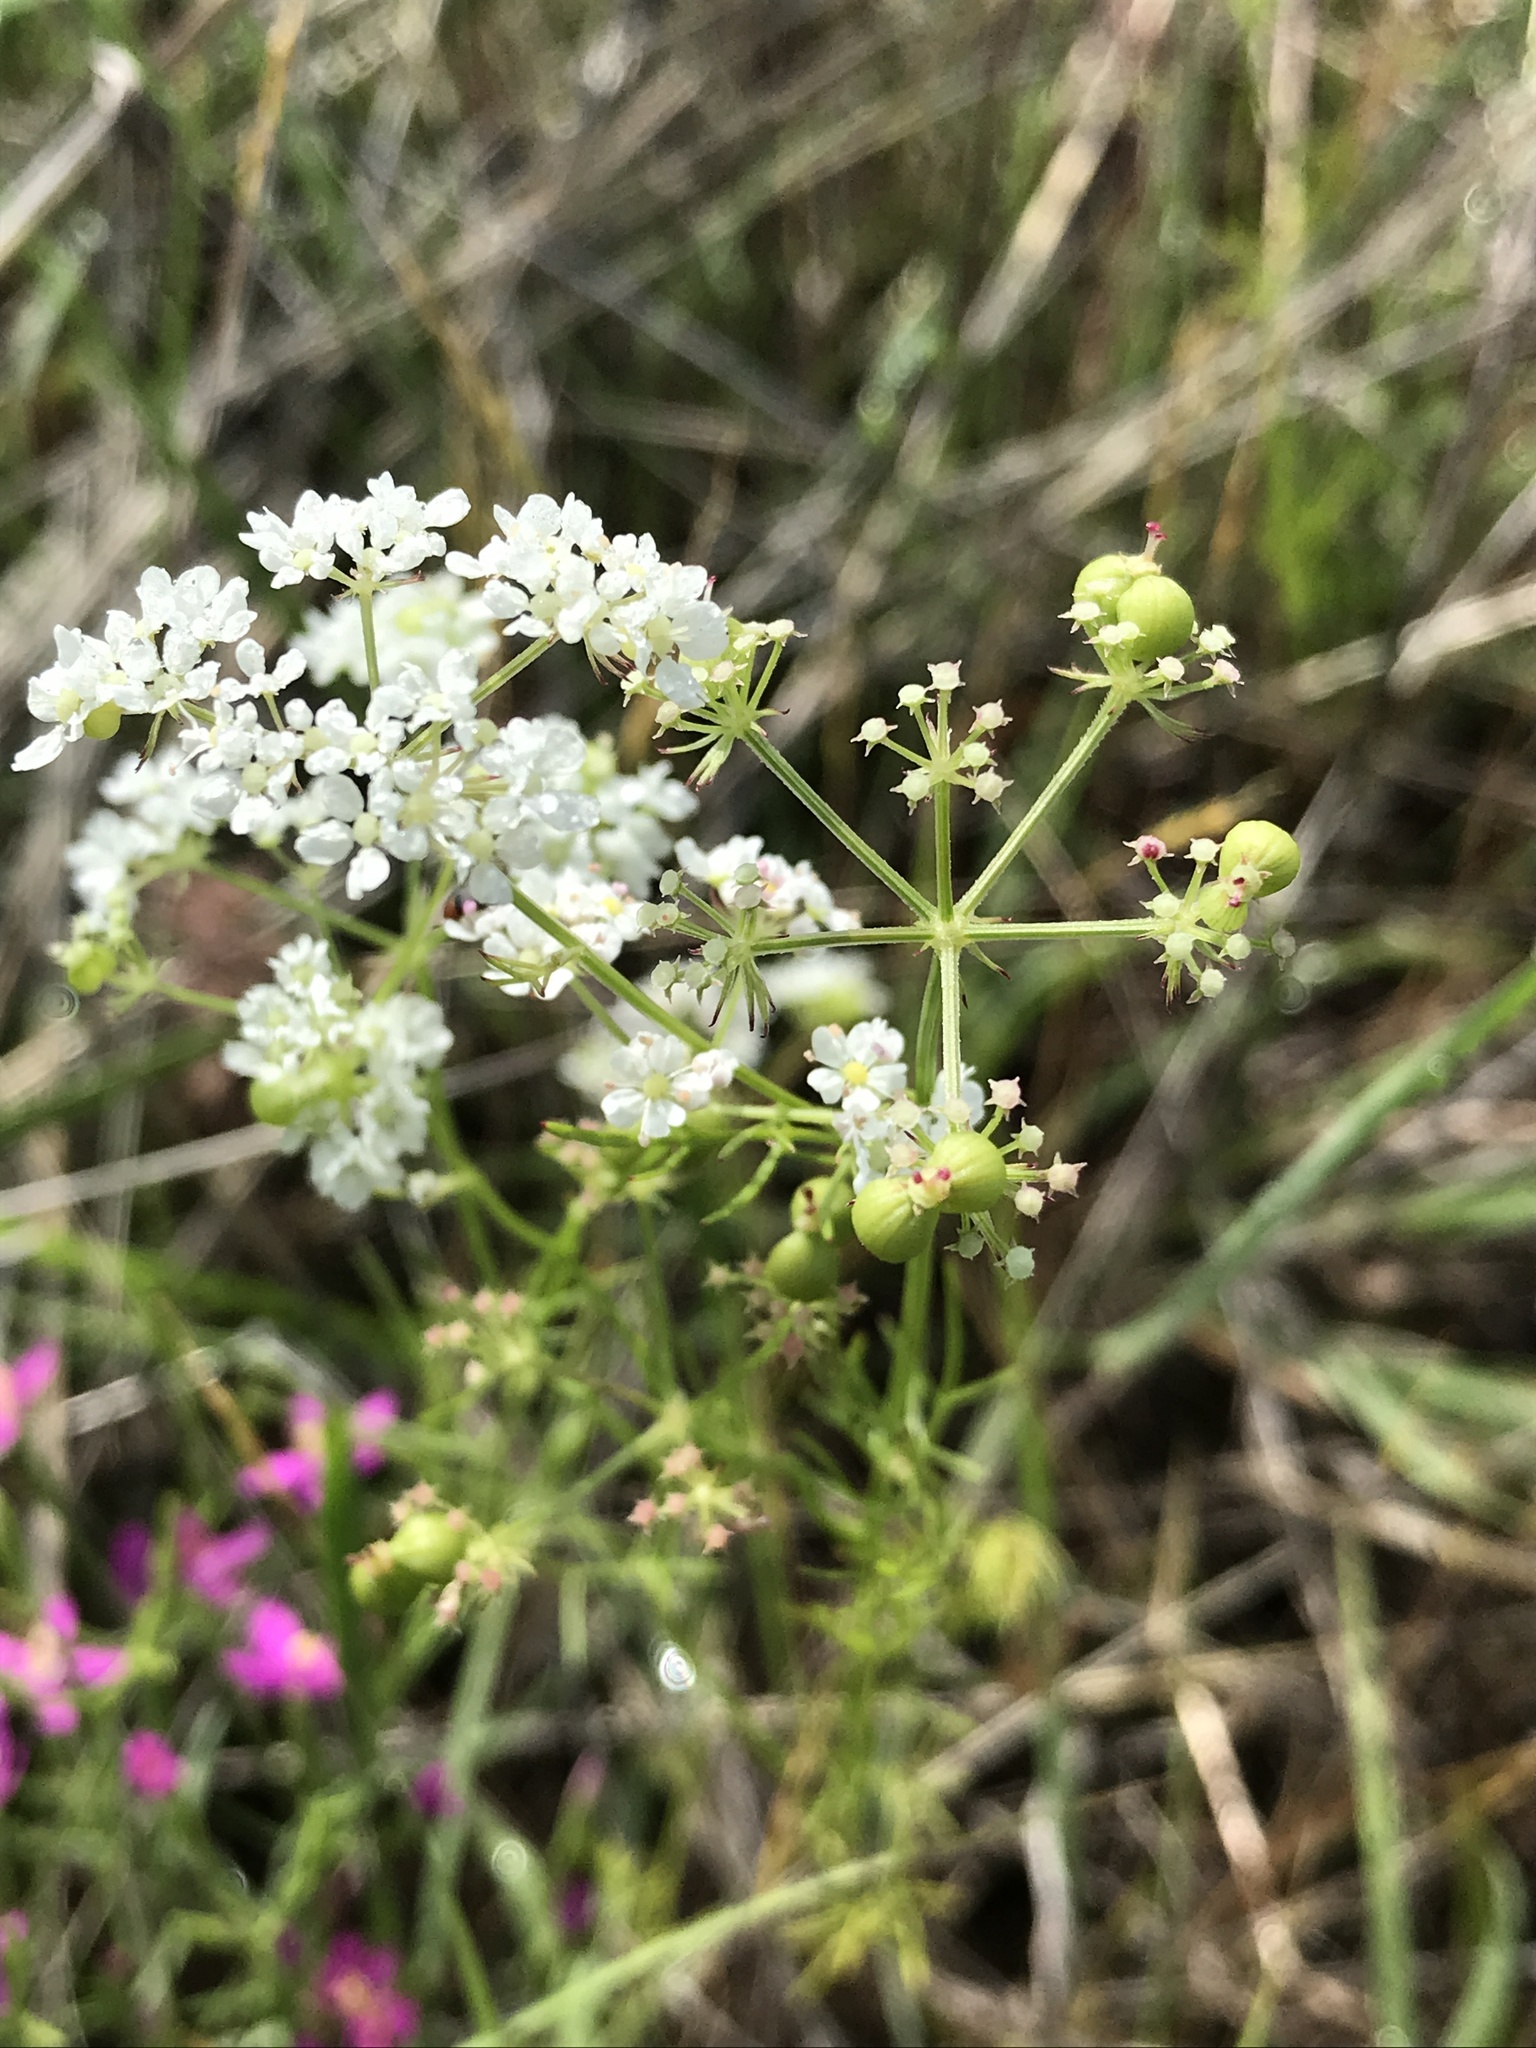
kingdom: Plantae
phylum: Tracheophyta
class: Magnoliopsida
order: Apiales
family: Apiaceae
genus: Atrema
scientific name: Atrema americanum
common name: Prairie-bishop
